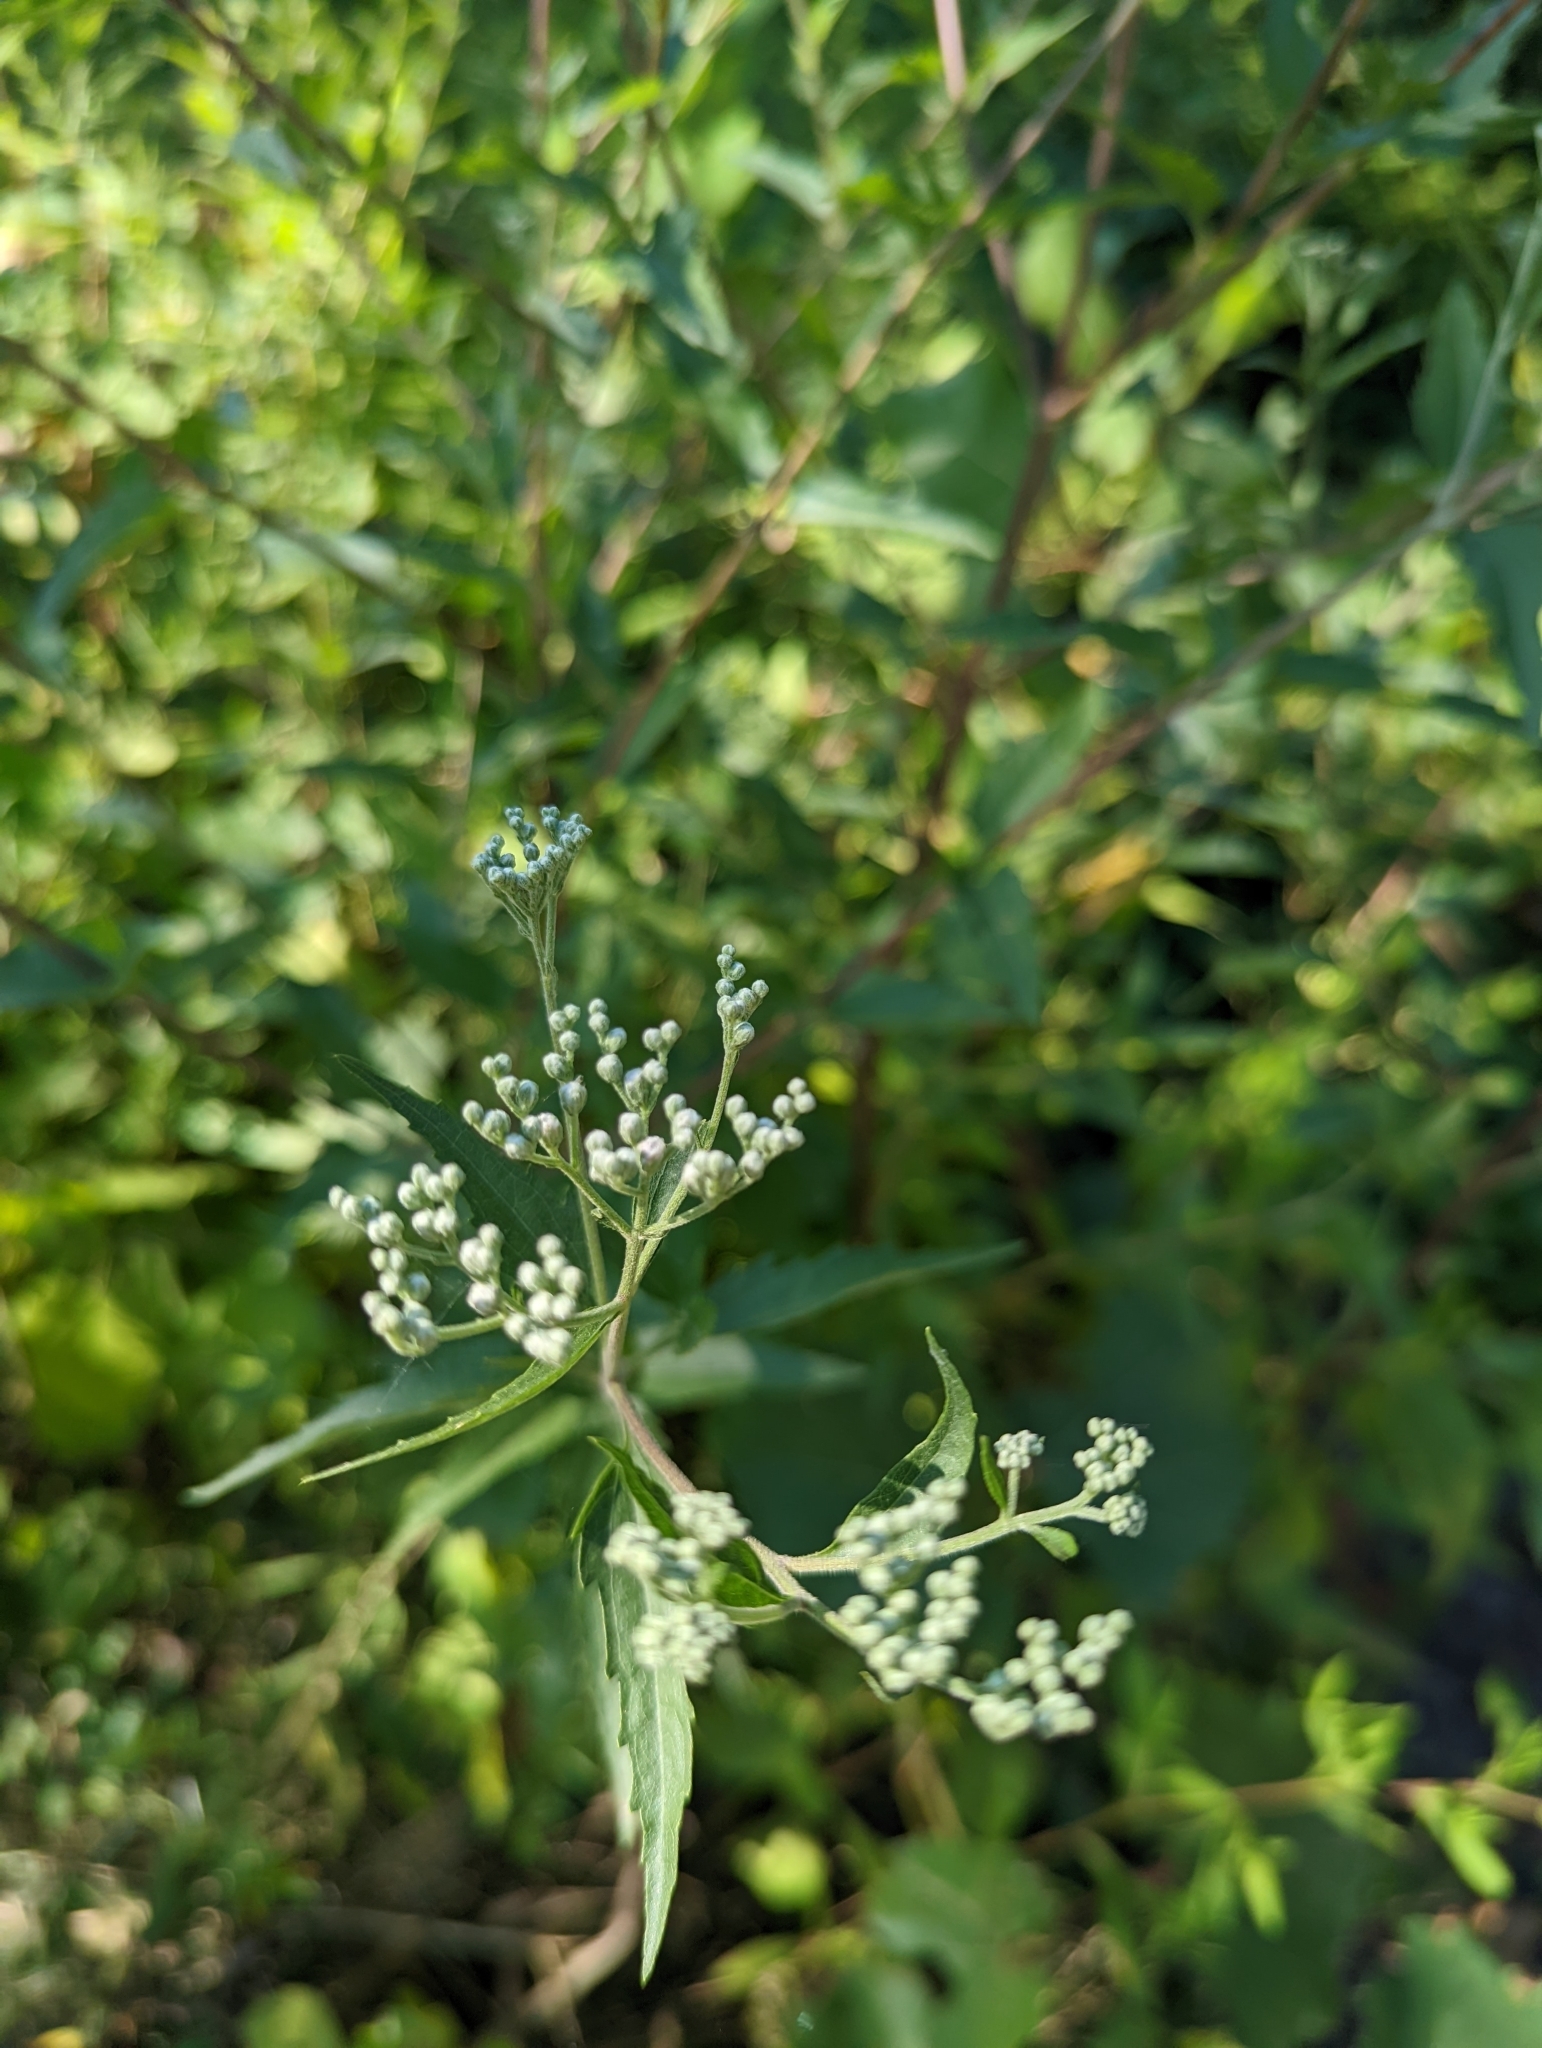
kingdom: Plantae
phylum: Tracheophyta
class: Magnoliopsida
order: Asterales
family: Asteraceae
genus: Eupatorium
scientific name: Eupatorium serotinum
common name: Late boneset
